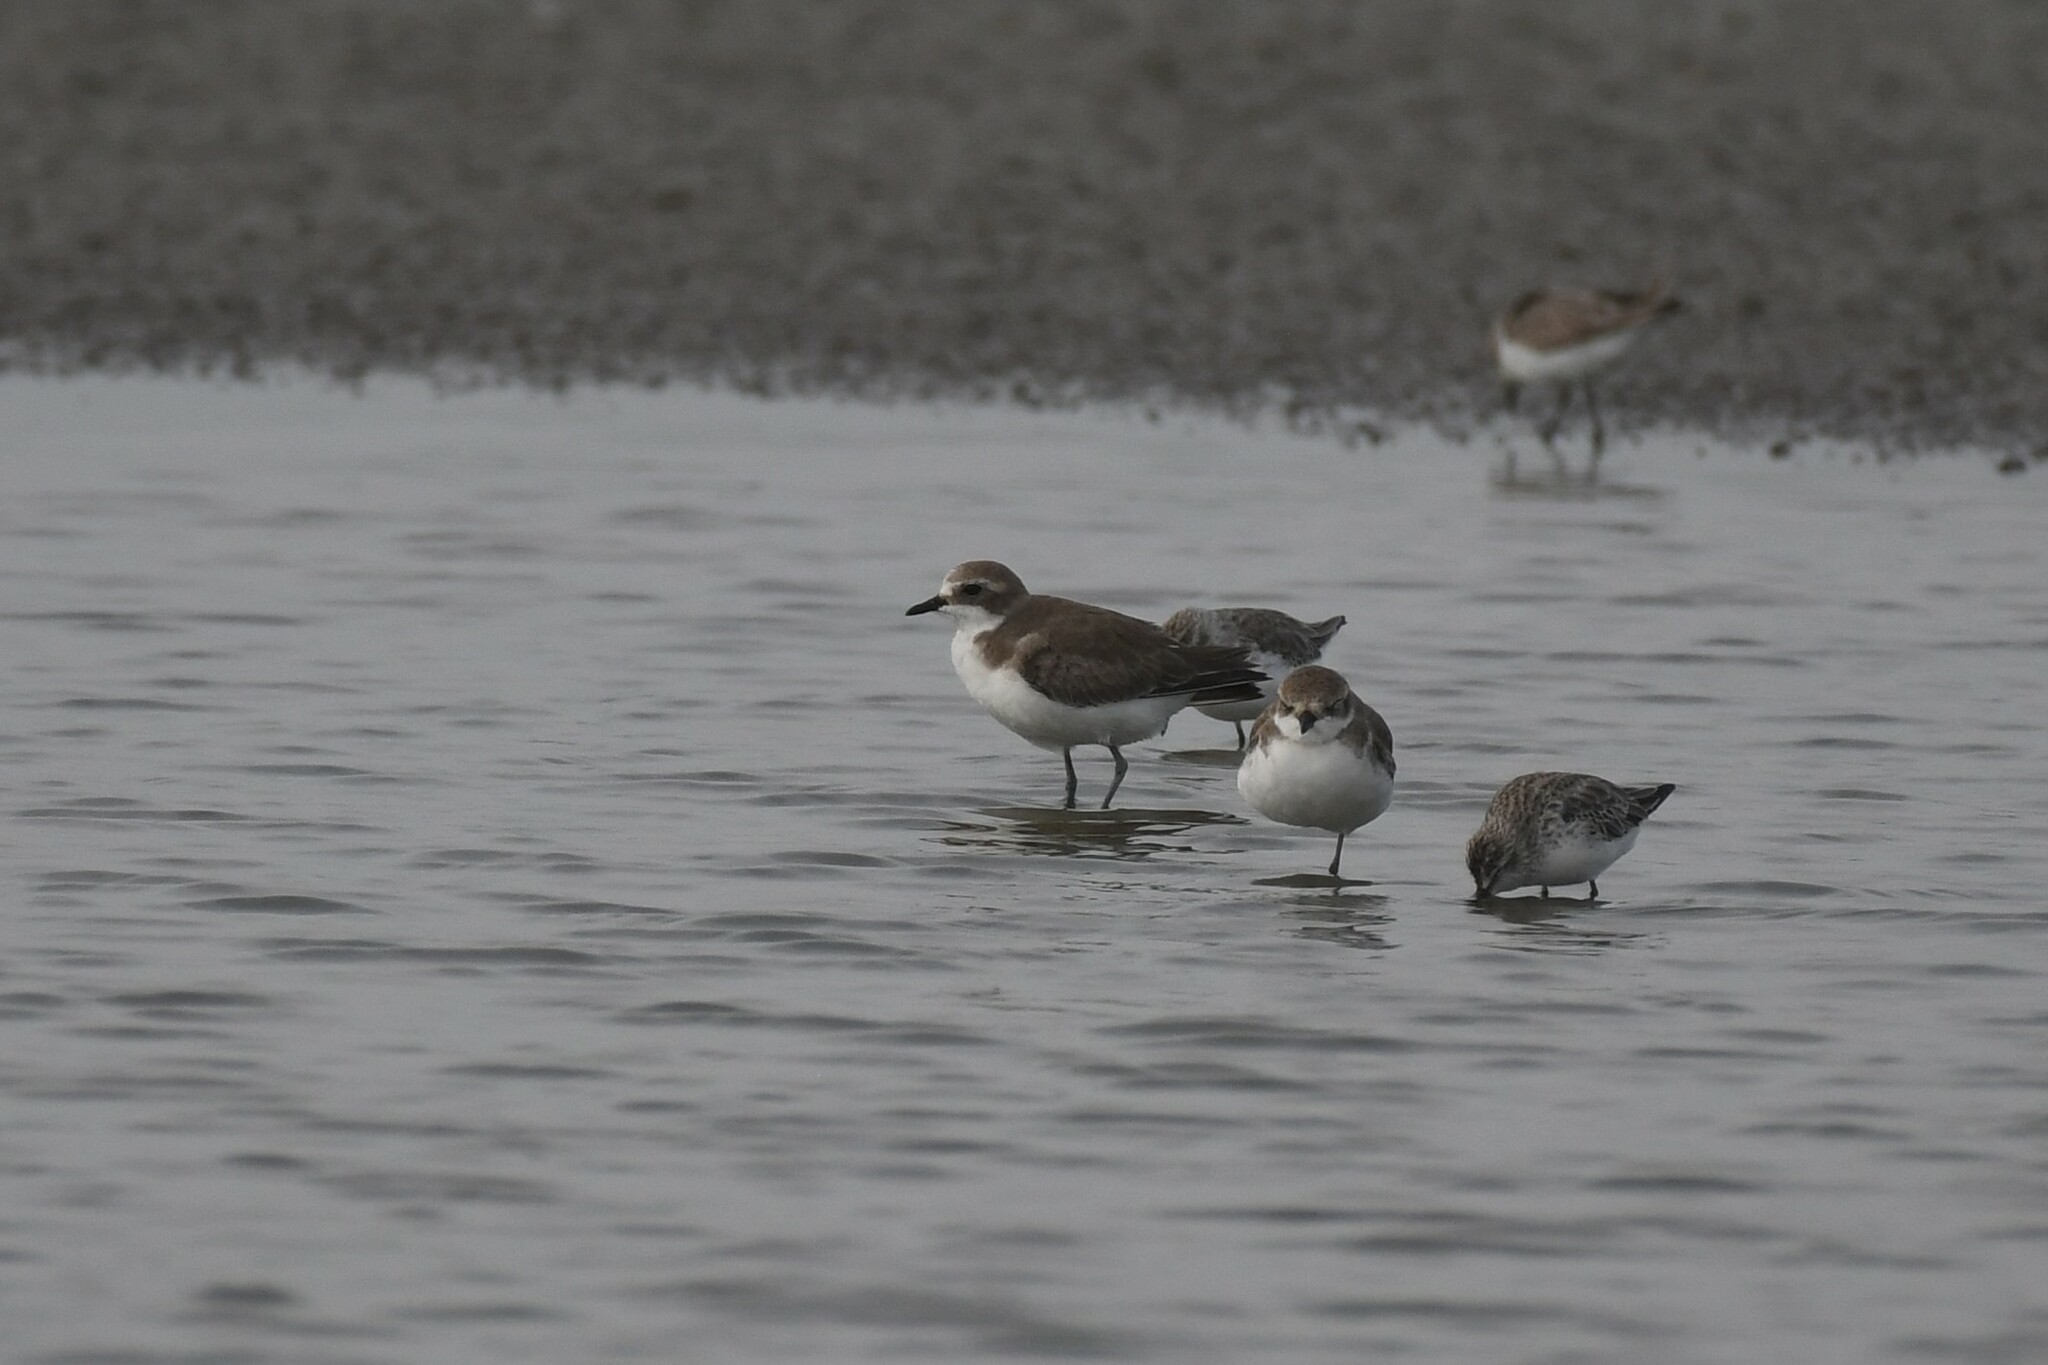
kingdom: Animalia
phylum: Chordata
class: Aves
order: Charadriiformes
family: Charadriidae
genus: Anarhynchus
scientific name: Anarhynchus
